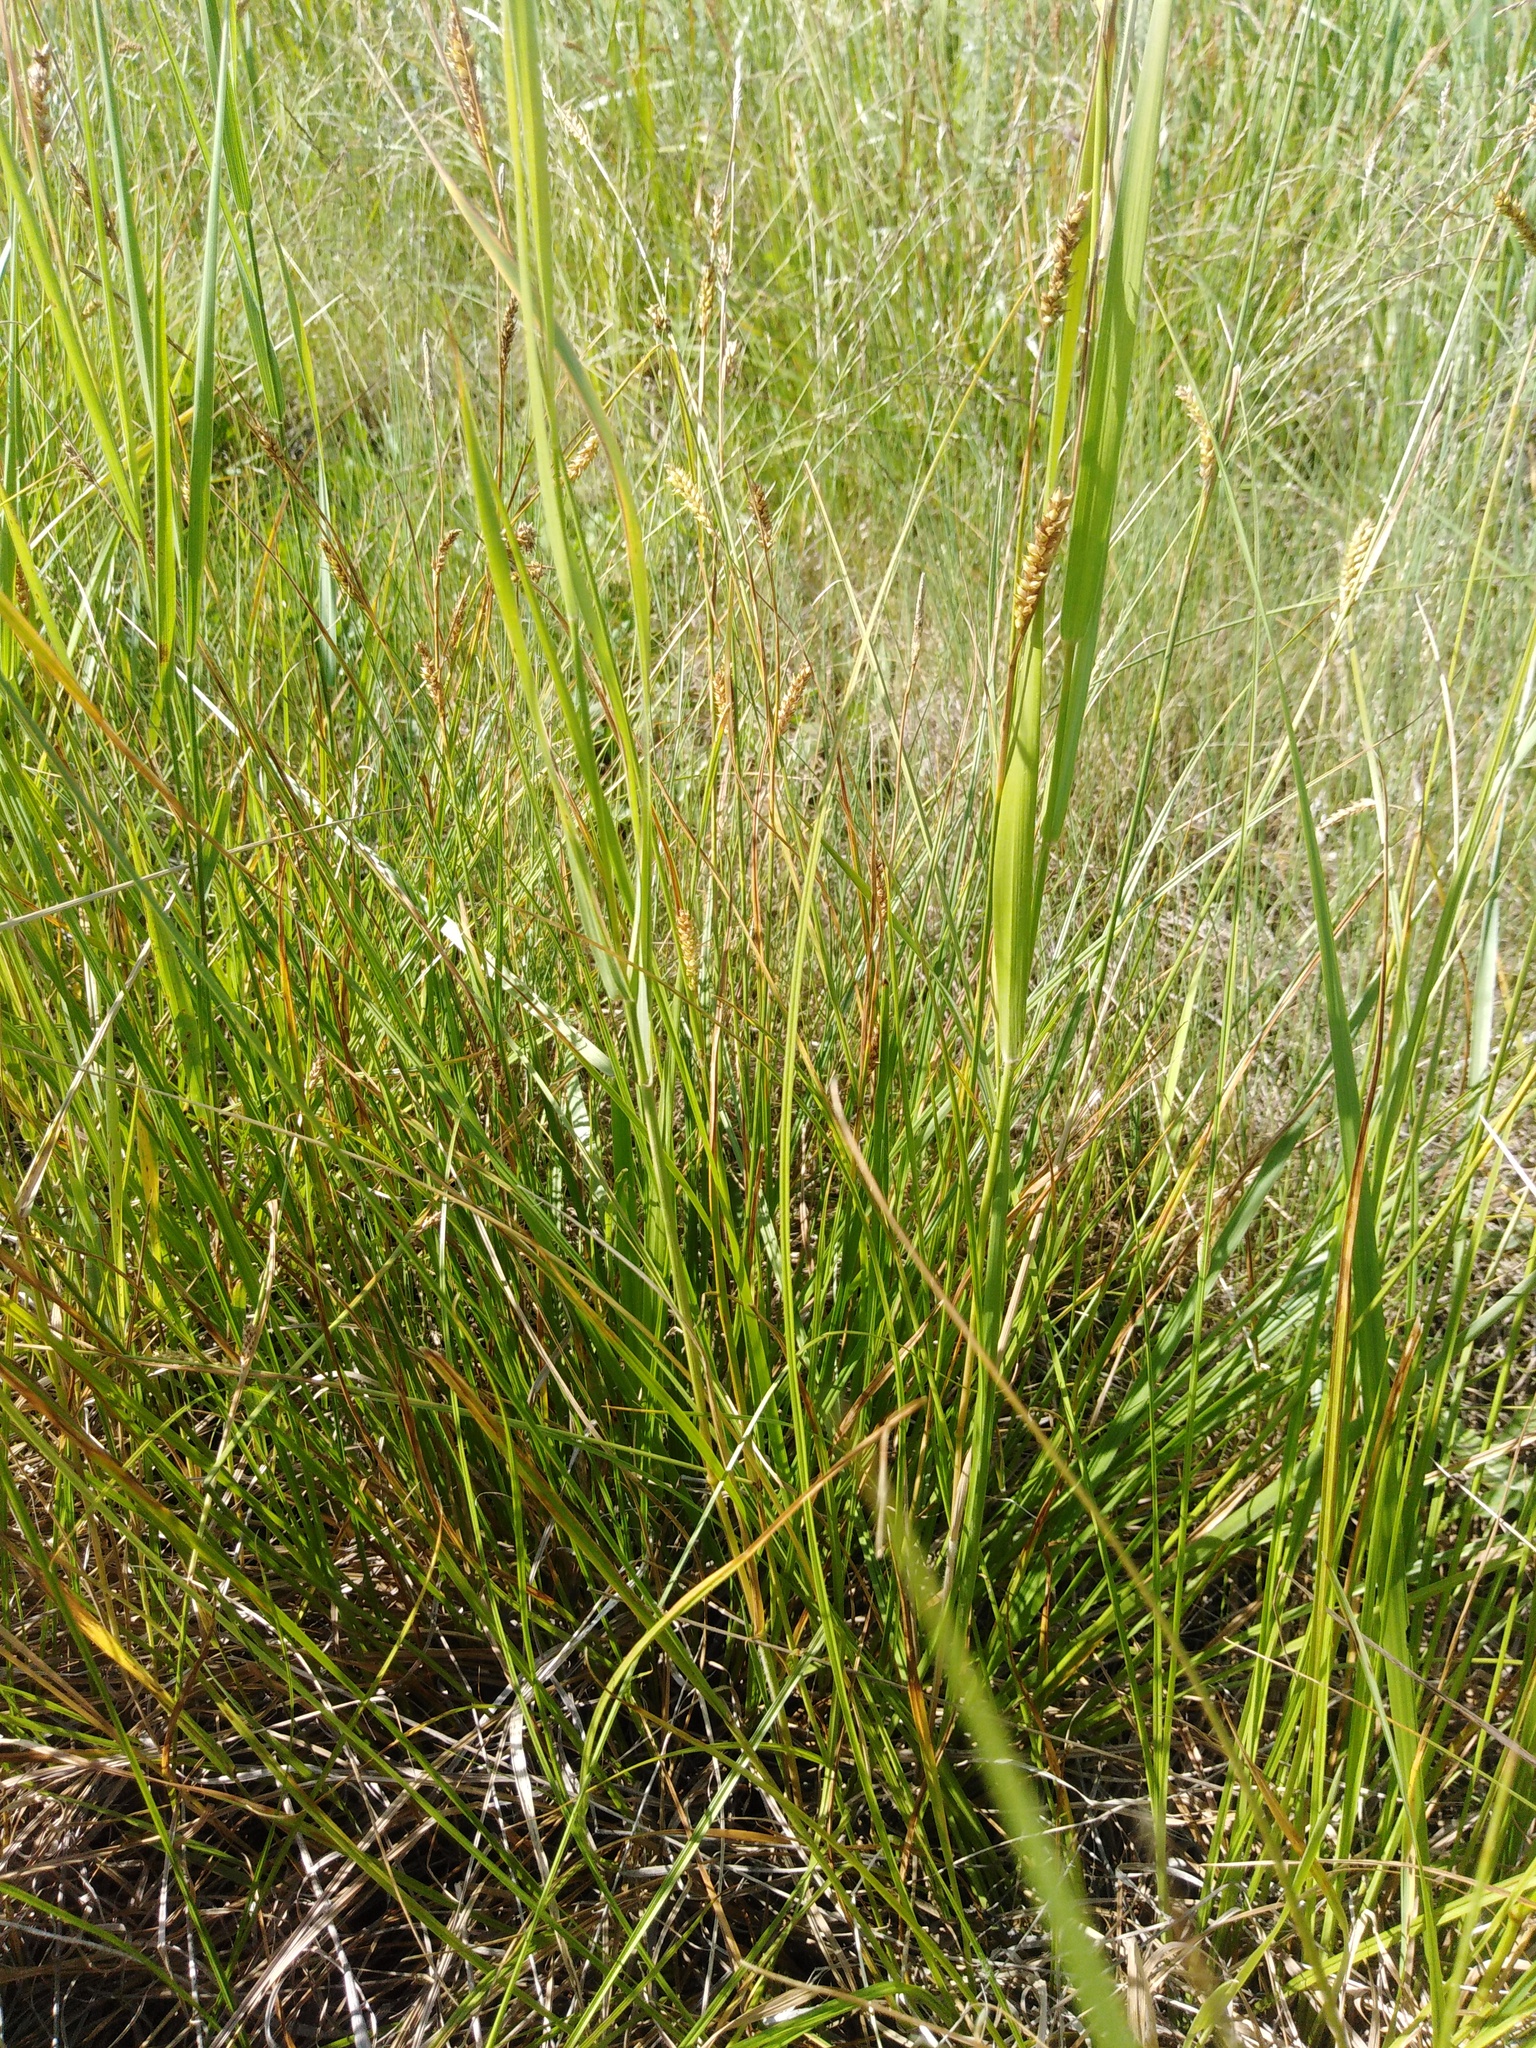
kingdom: Plantae
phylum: Tracheophyta
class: Liliopsida
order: Poales
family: Cyperaceae
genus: Carex
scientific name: Carex diluta
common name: Sedge
